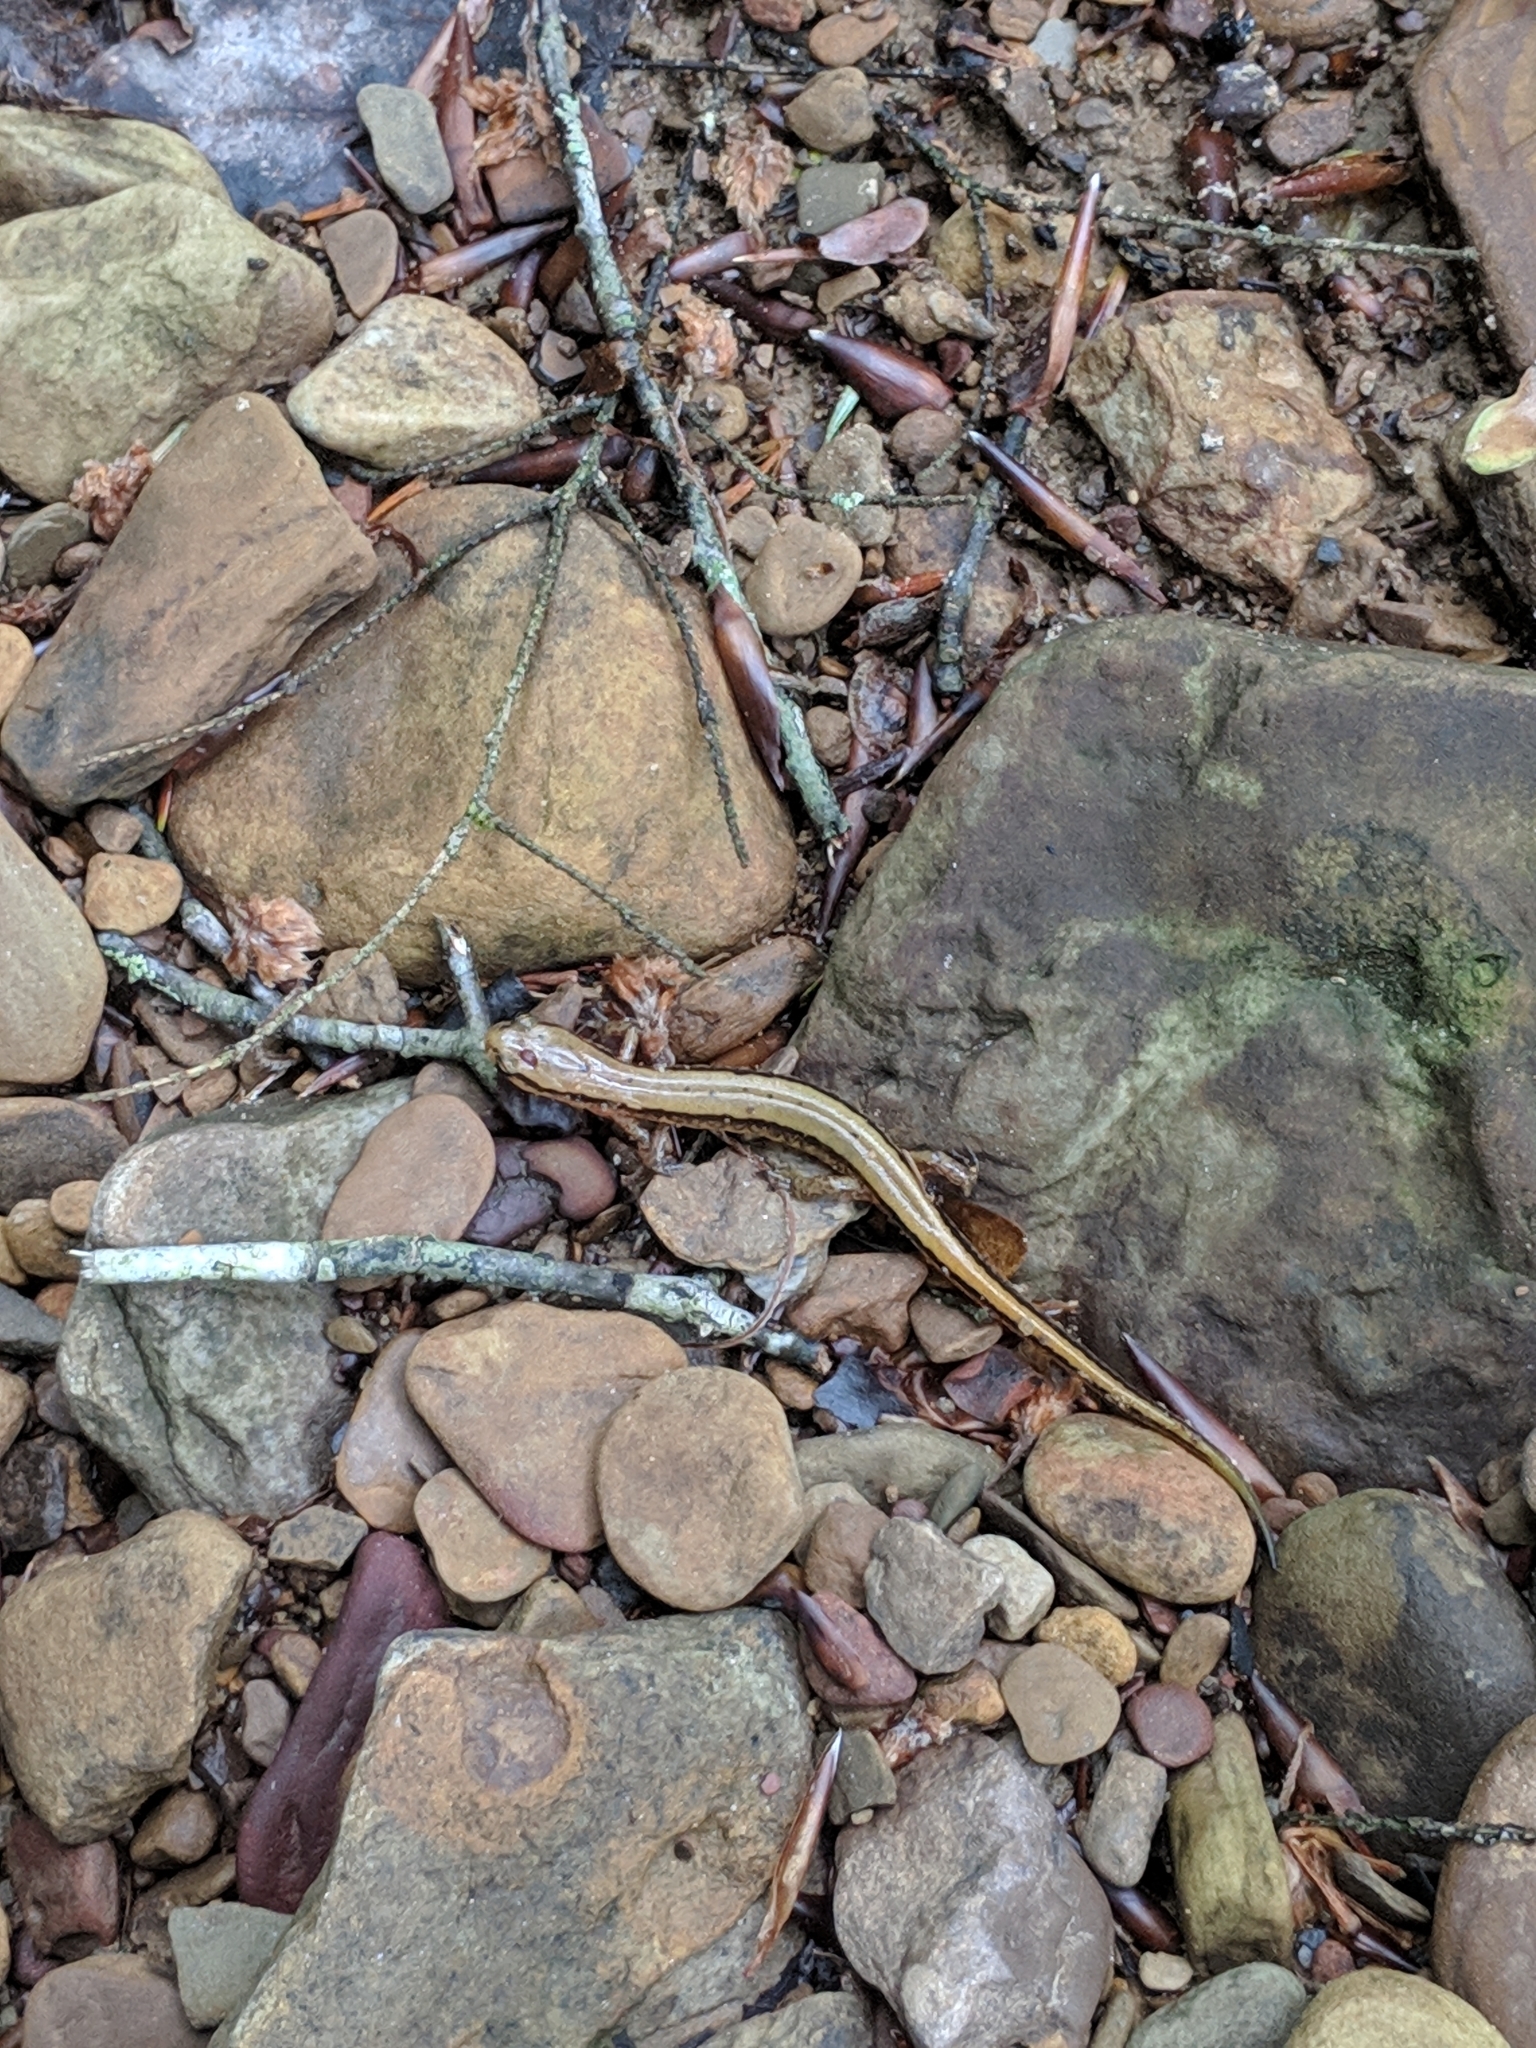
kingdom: Animalia
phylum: Chordata
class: Amphibia
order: Caudata
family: Plethodontidae
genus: Eurycea
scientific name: Eurycea cirrigera
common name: Southern two-lined salamander
